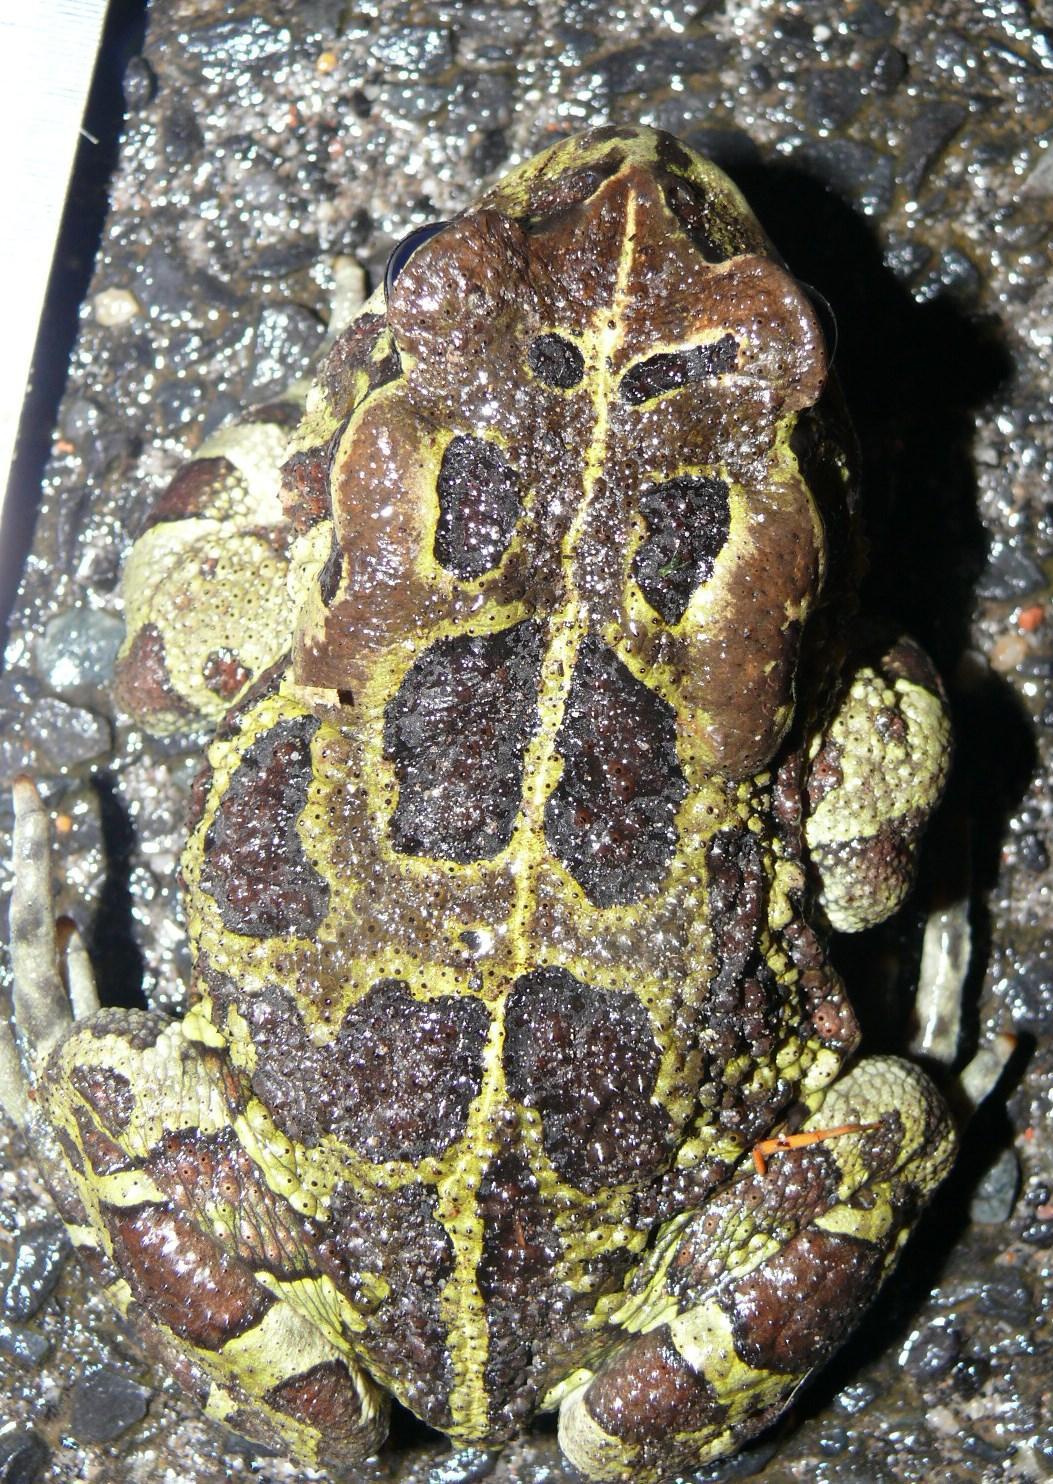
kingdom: Animalia
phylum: Chordata
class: Amphibia
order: Anura
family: Bufonidae
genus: Sclerophrys
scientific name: Sclerophrys pantherina
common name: Panther toad
